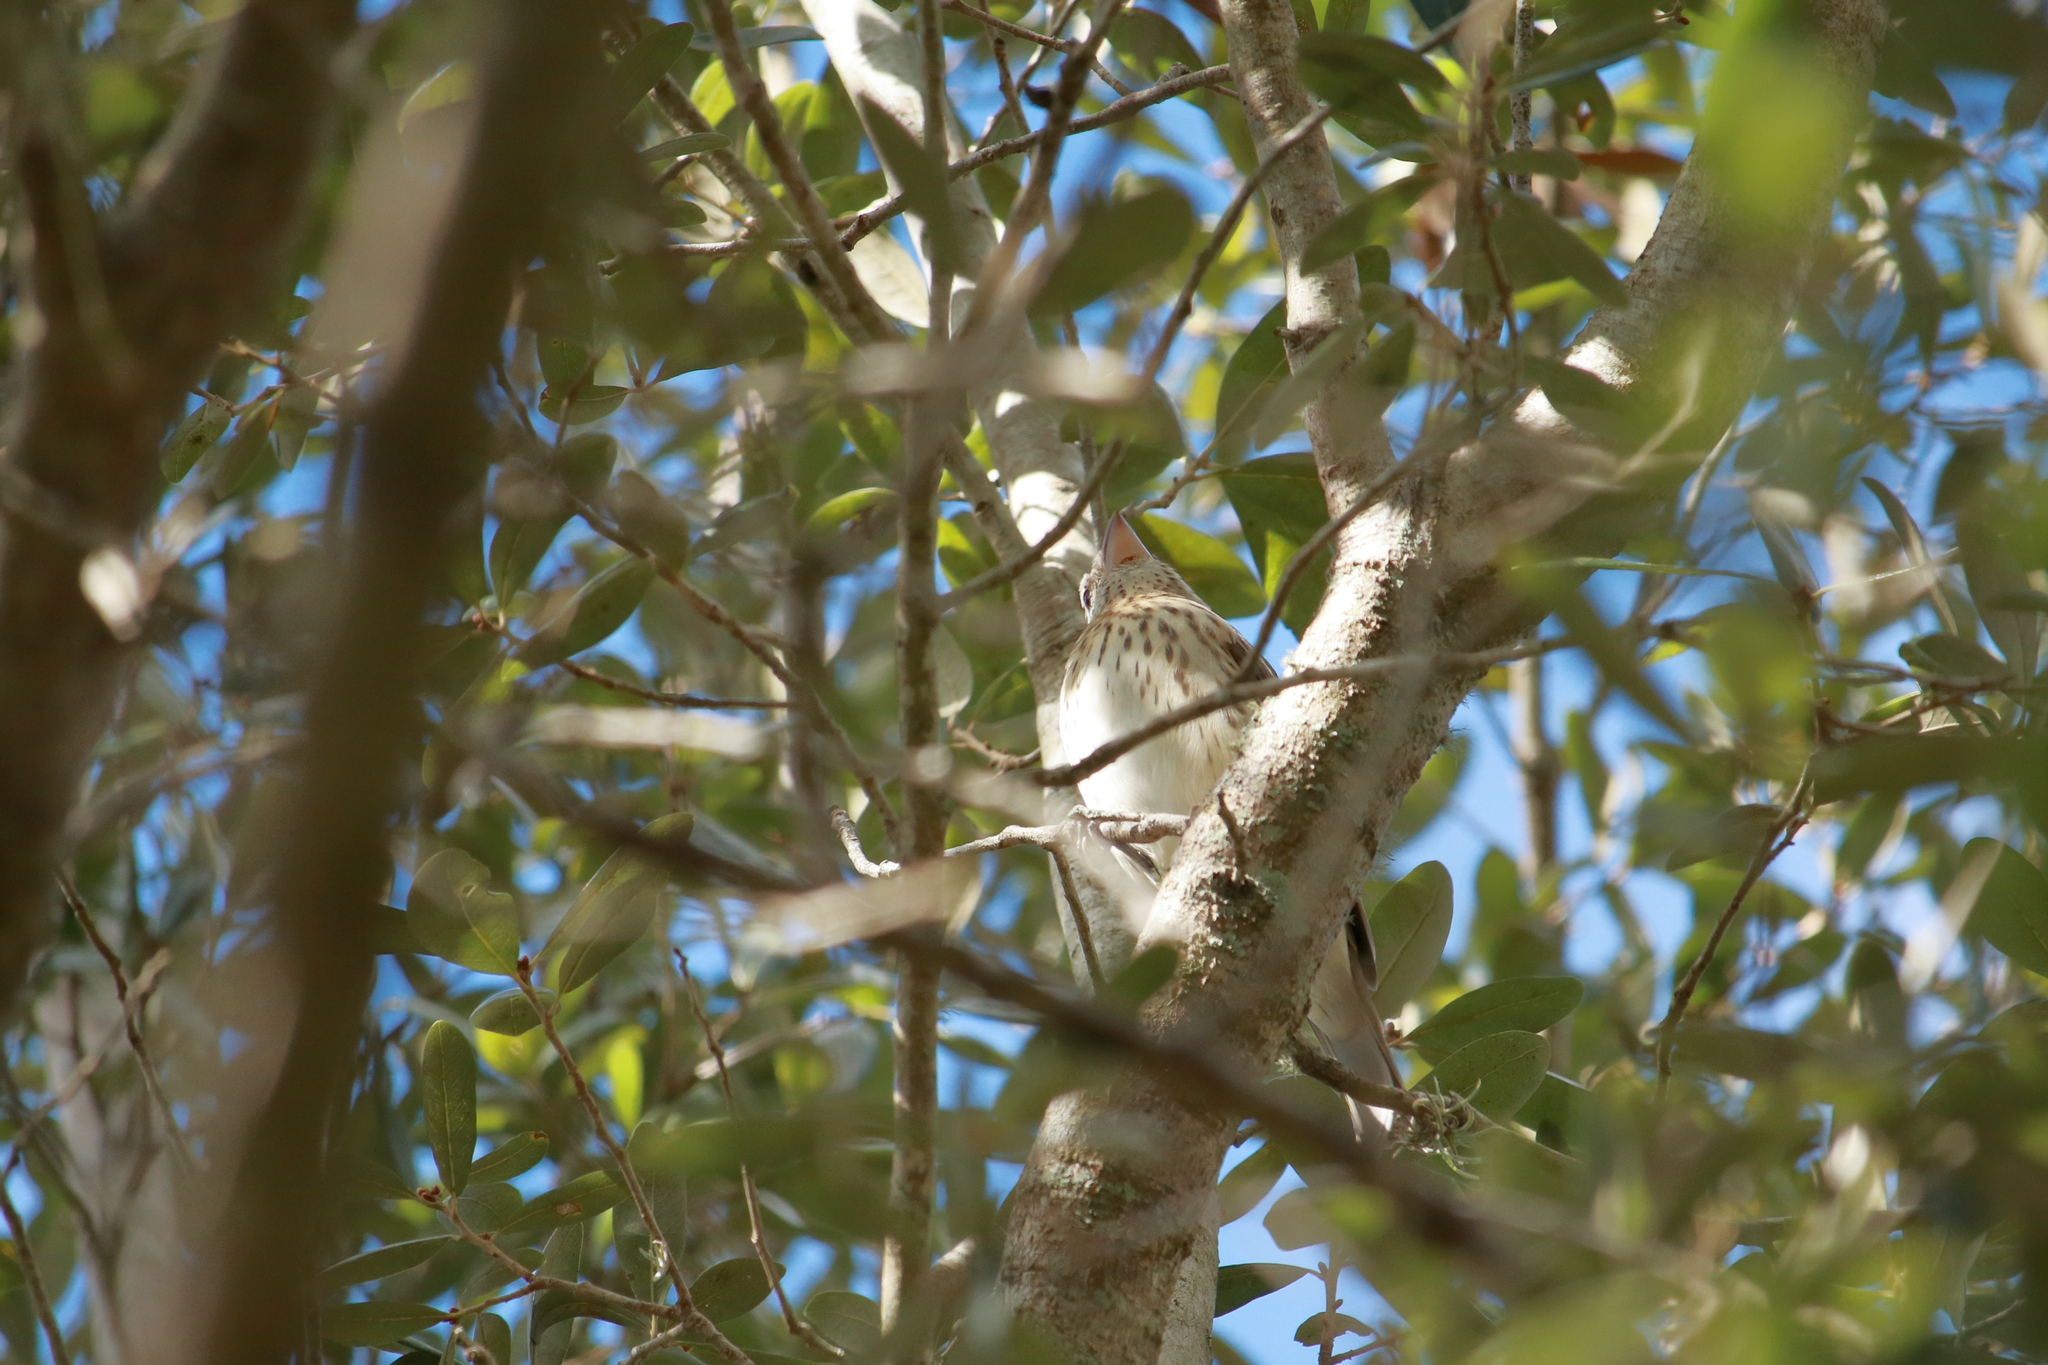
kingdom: Animalia
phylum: Chordata
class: Aves
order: Passeriformes
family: Cardinalidae
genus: Pheucticus
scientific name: Pheucticus ludovicianus
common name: Rose-breasted grosbeak
